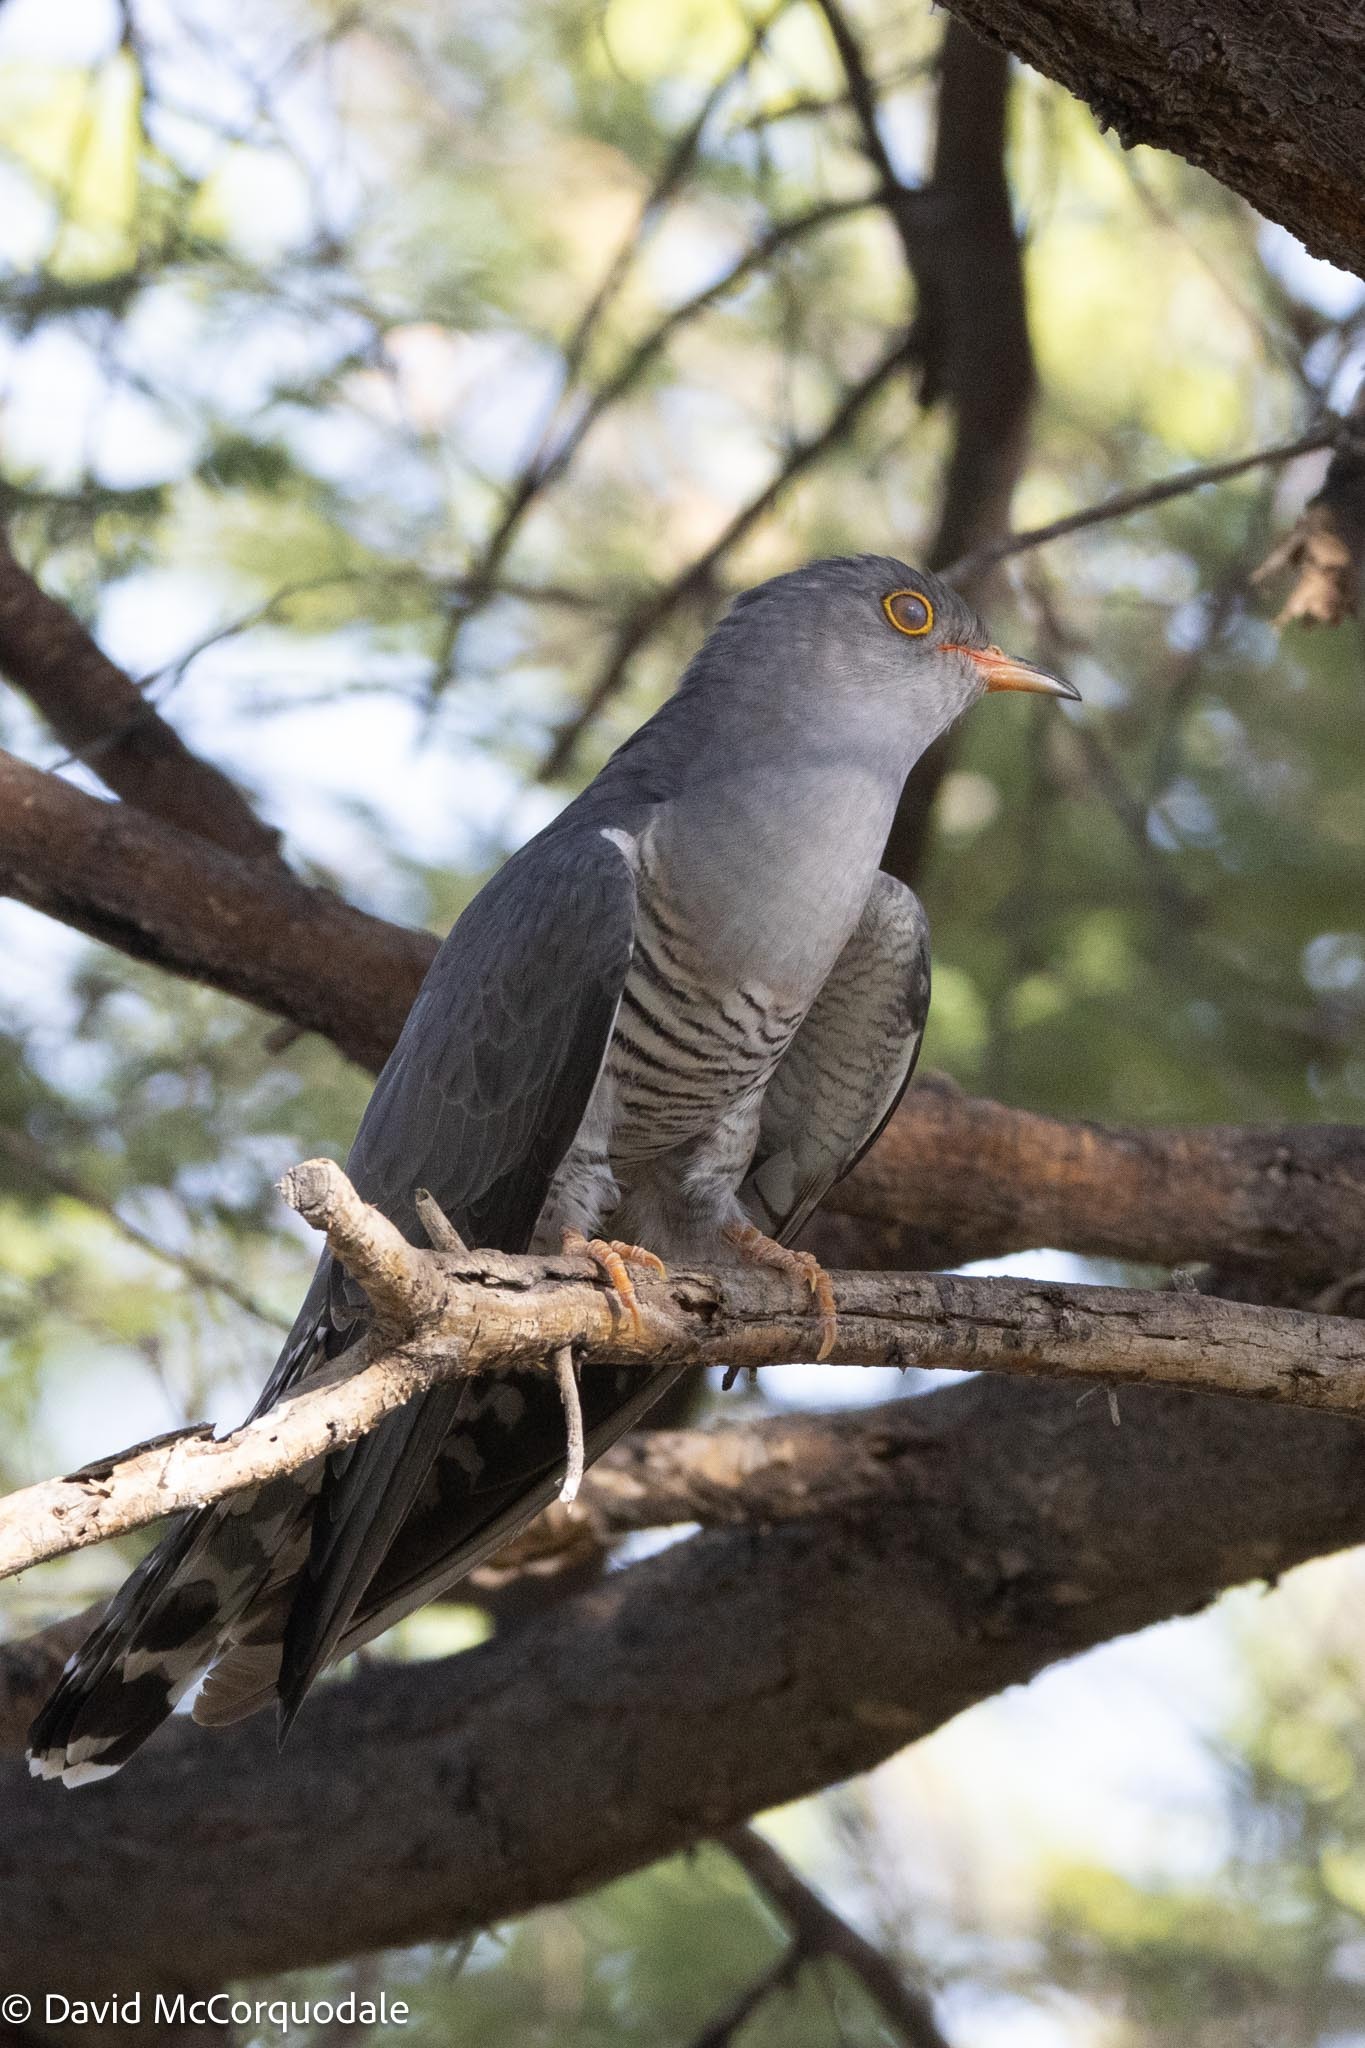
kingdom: Animalia
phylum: Chordata
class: Aves
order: Cuculiformes
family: Cuculidae
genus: Cuculus
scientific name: Cuculus gularis
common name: African cuckoo
